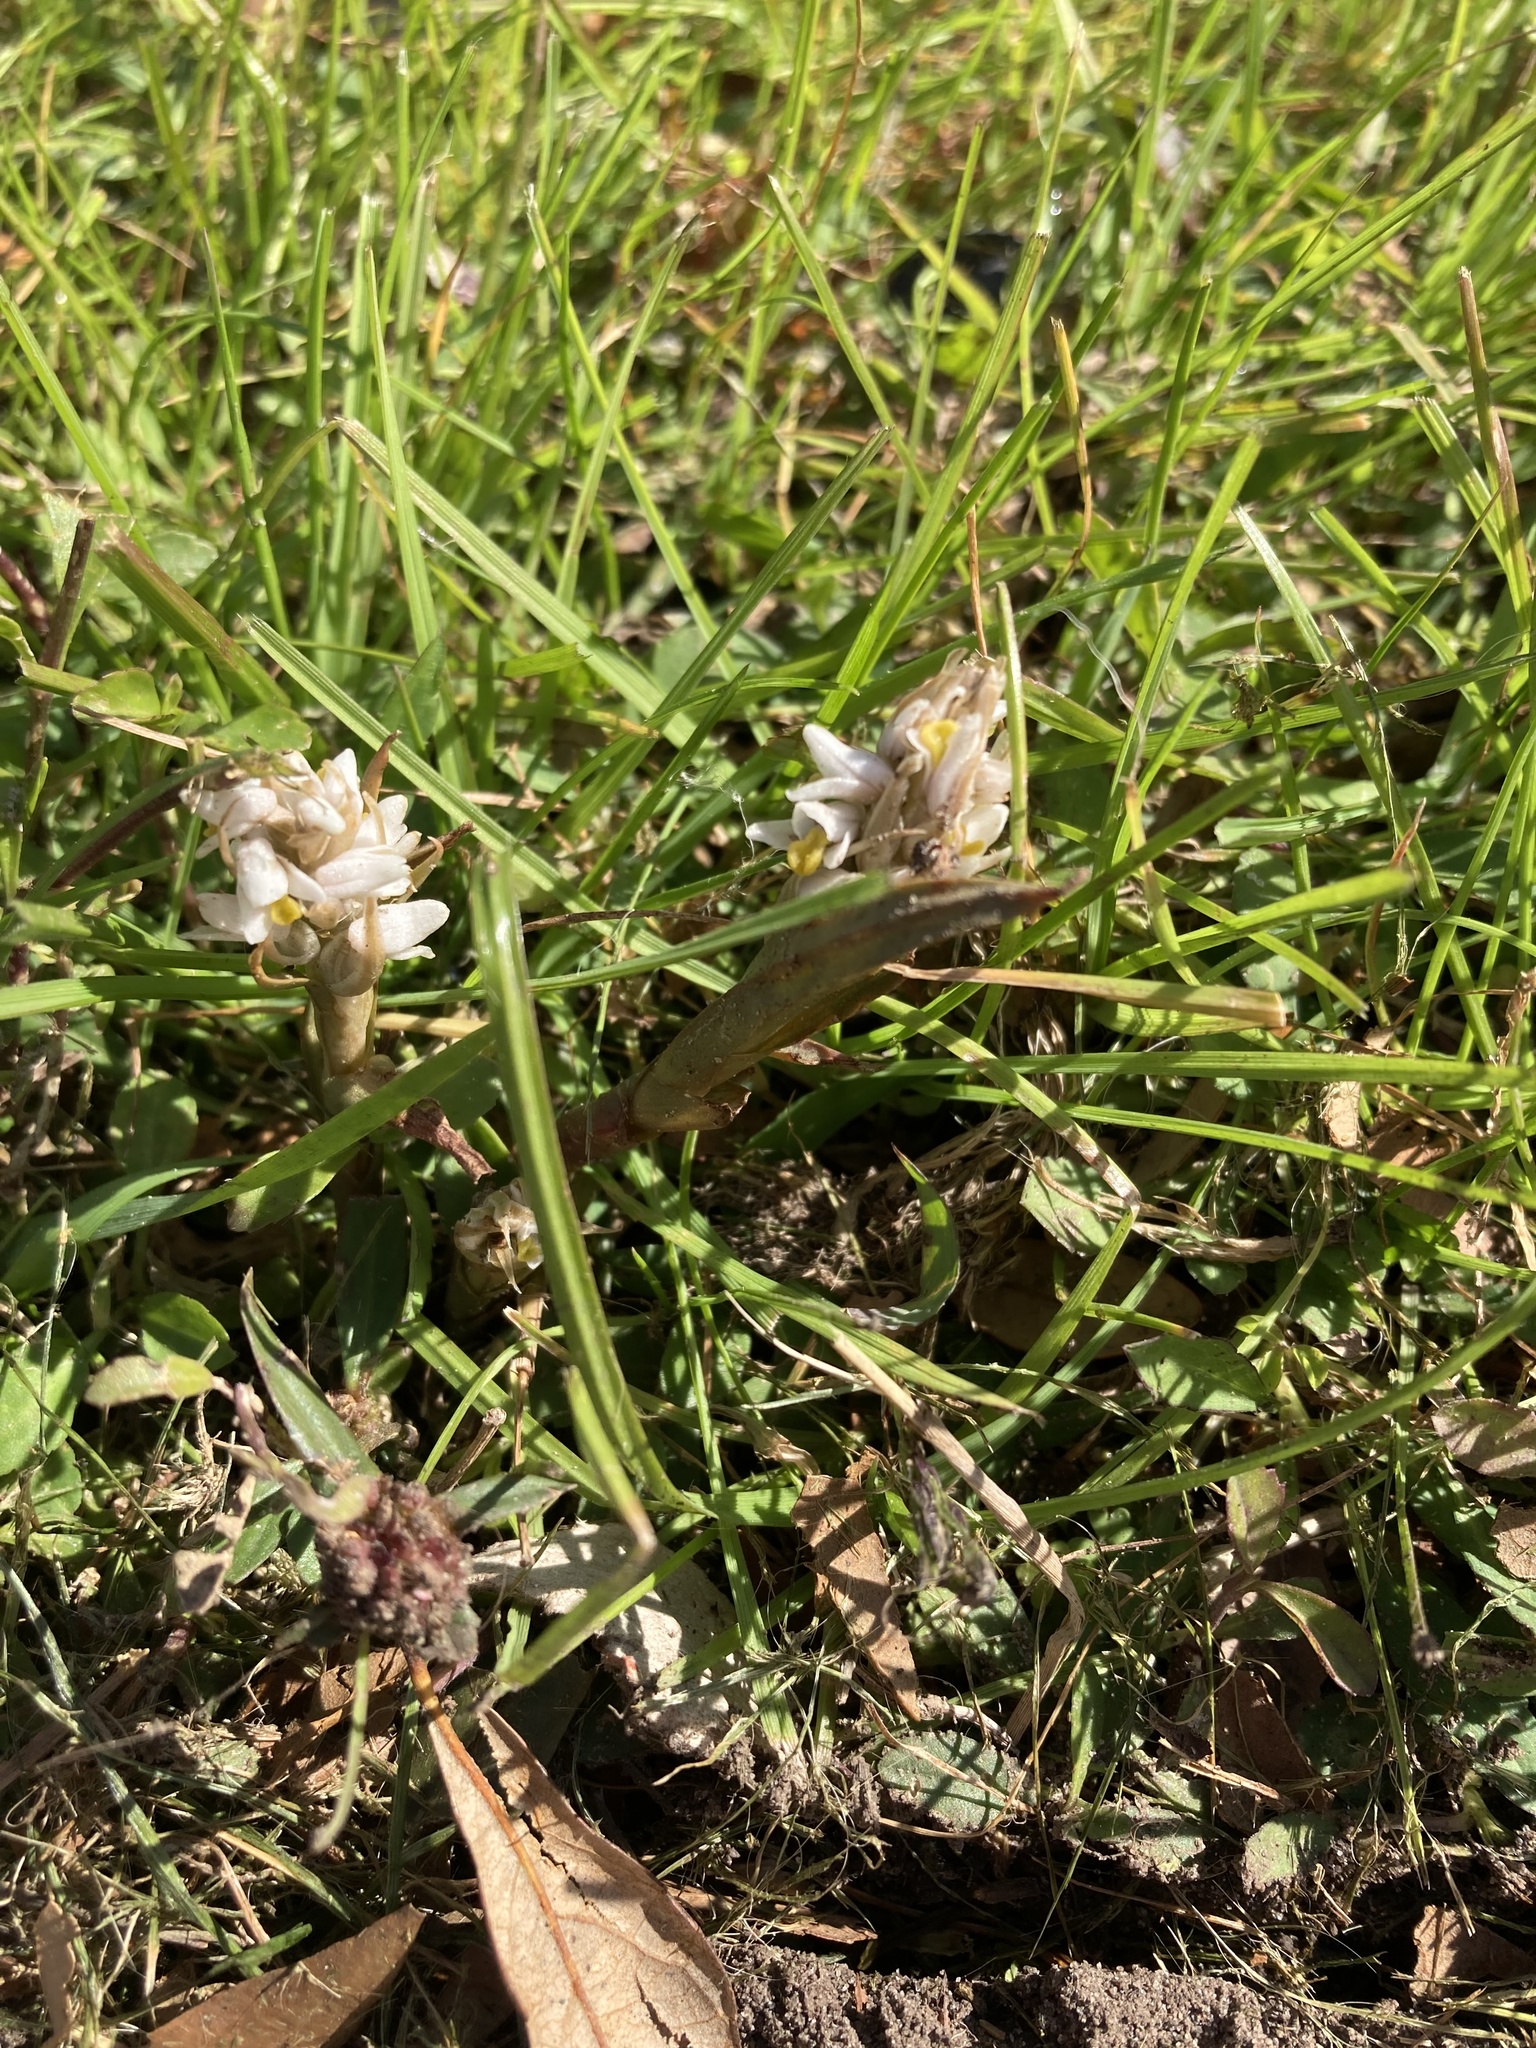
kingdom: Plantae
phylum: Tracheophyta
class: Liliopsida
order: Asparagales
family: Orchidaceae
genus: Zeuxine
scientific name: Zeuxine strateumatica
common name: Soldier's orchid
